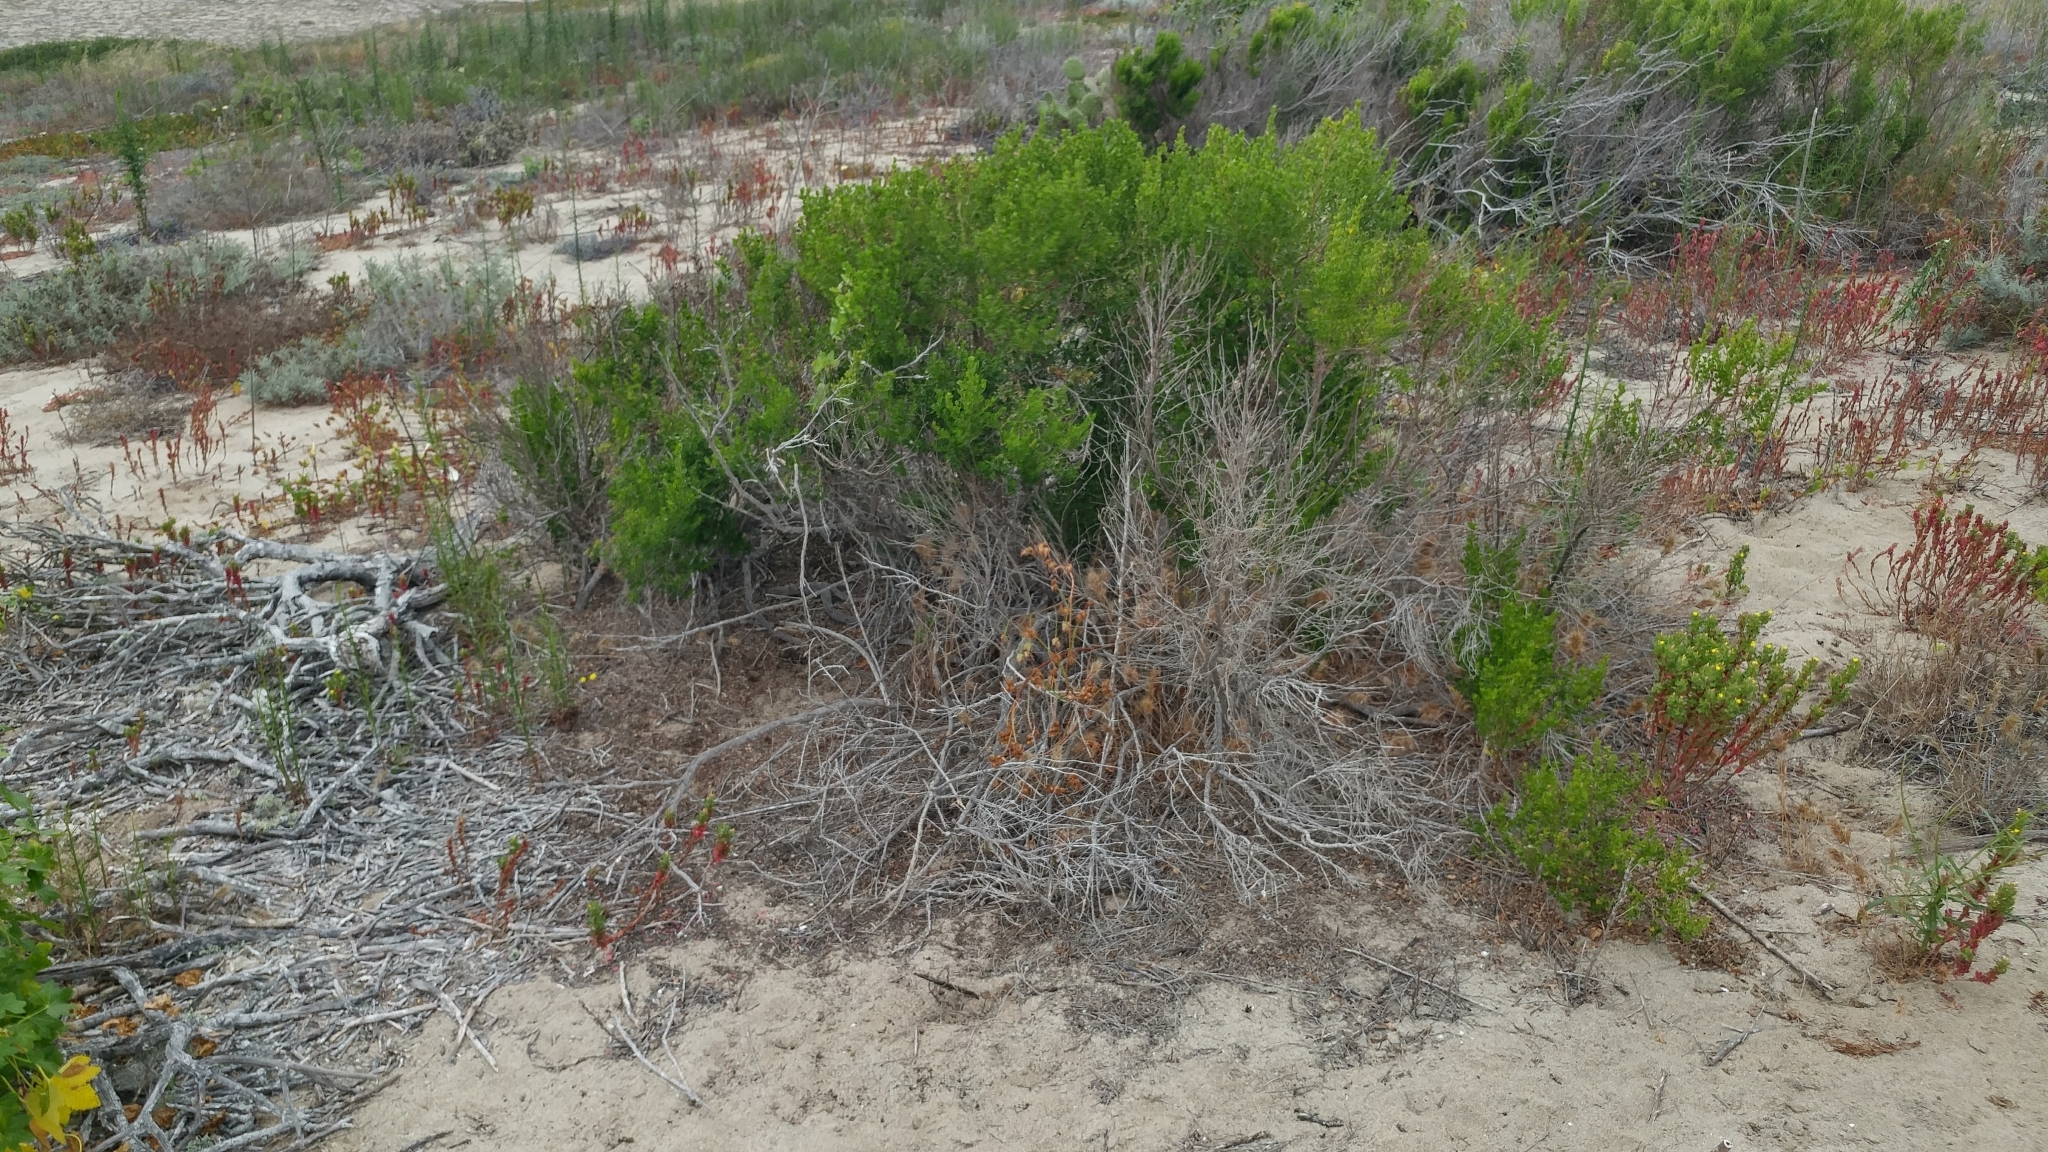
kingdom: Plantae
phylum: Tracheophyta
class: Magnoliopsida
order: Asterales
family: Asteraceae
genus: Baccharis
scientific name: Baccharis pilularis
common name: Coyotebrush
